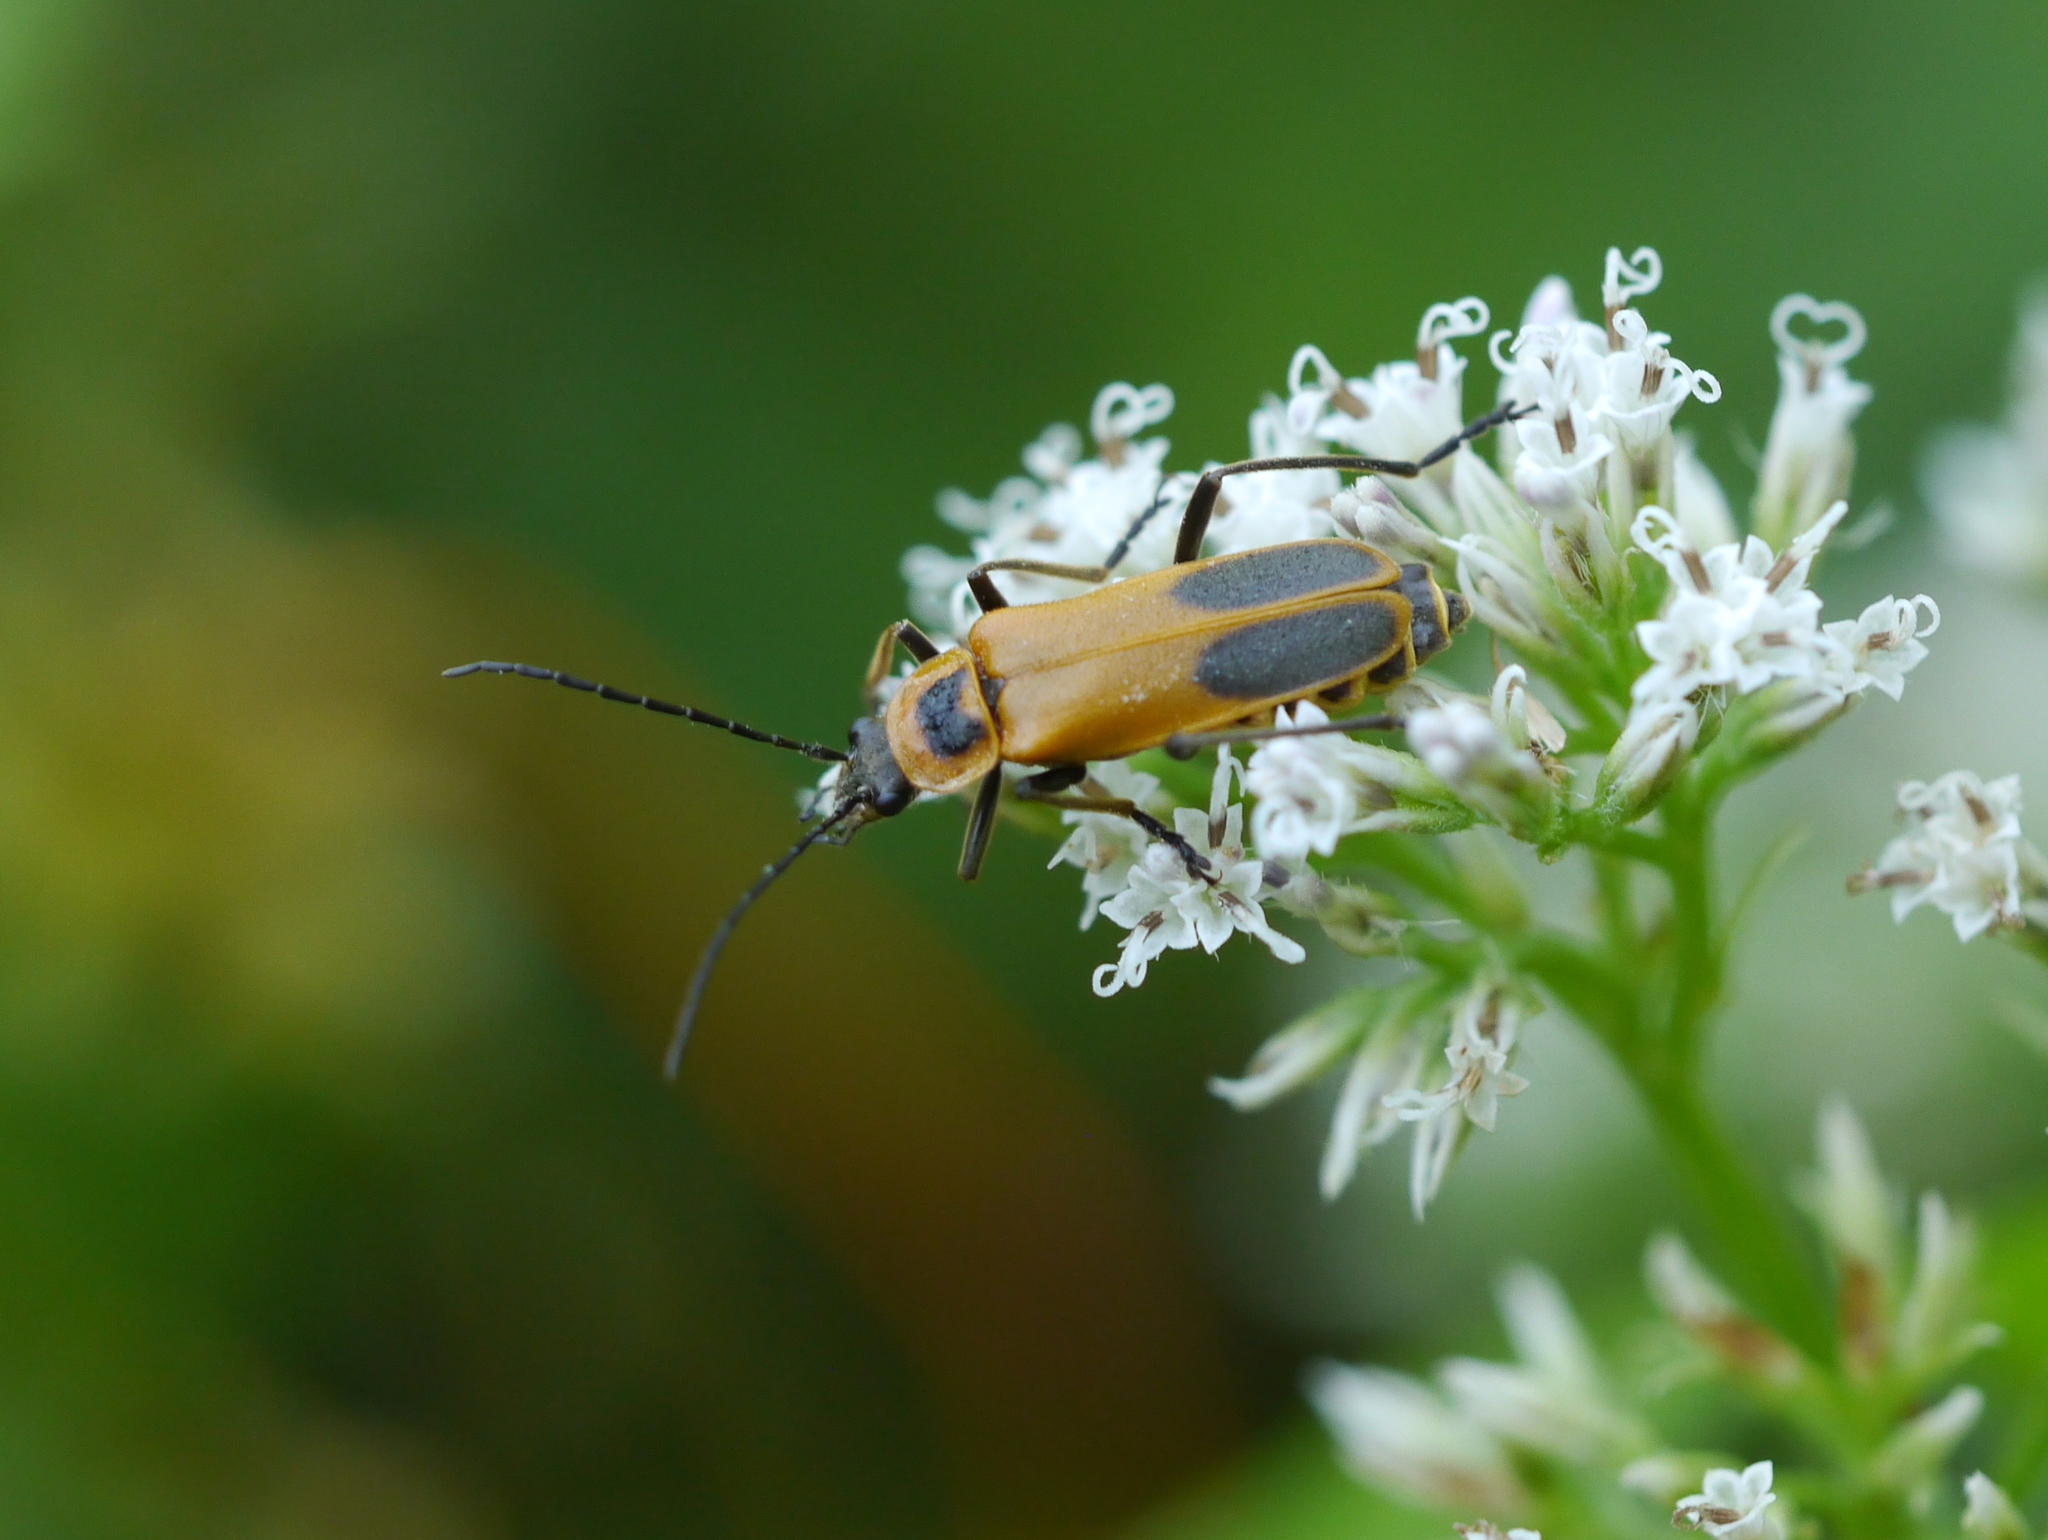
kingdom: Animalia
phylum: Arthropoda
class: Insecta
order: Coleoptera
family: Cantharidae
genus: Chauliognathus
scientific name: Chauliognathus pensylvanicus
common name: Goldenrod soldier beetle
